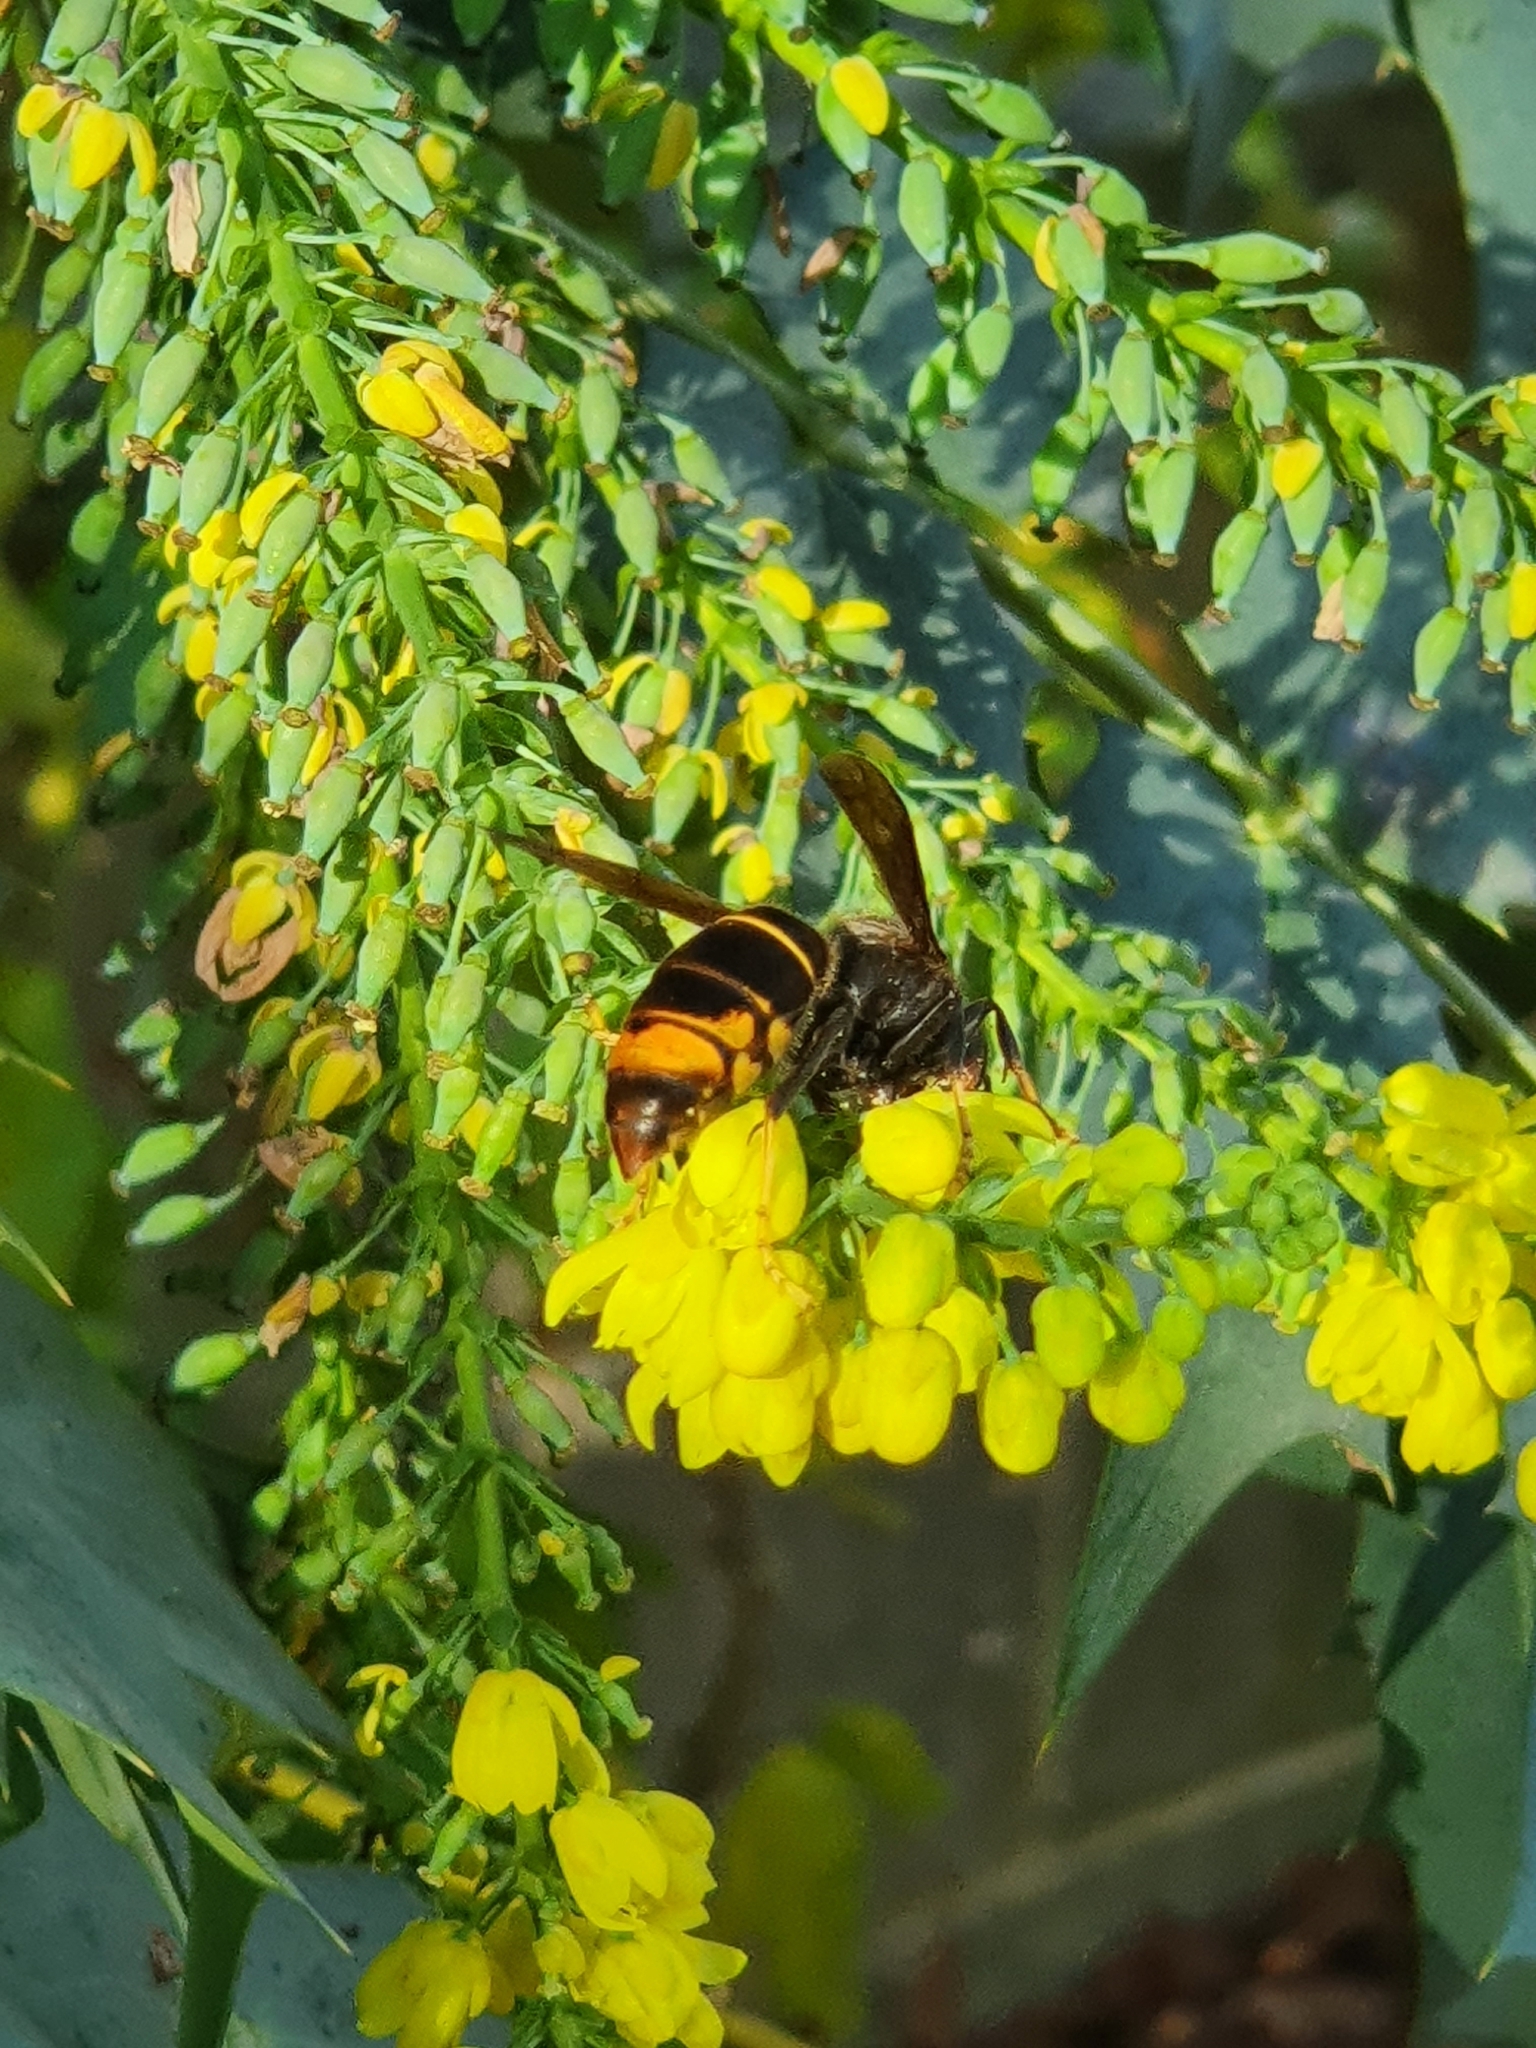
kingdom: Animalia
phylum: Arthropoda
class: Insecta
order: Hymenoptera
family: Vespidae
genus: Vespa
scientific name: Vespa velutina
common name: Asian hornet
